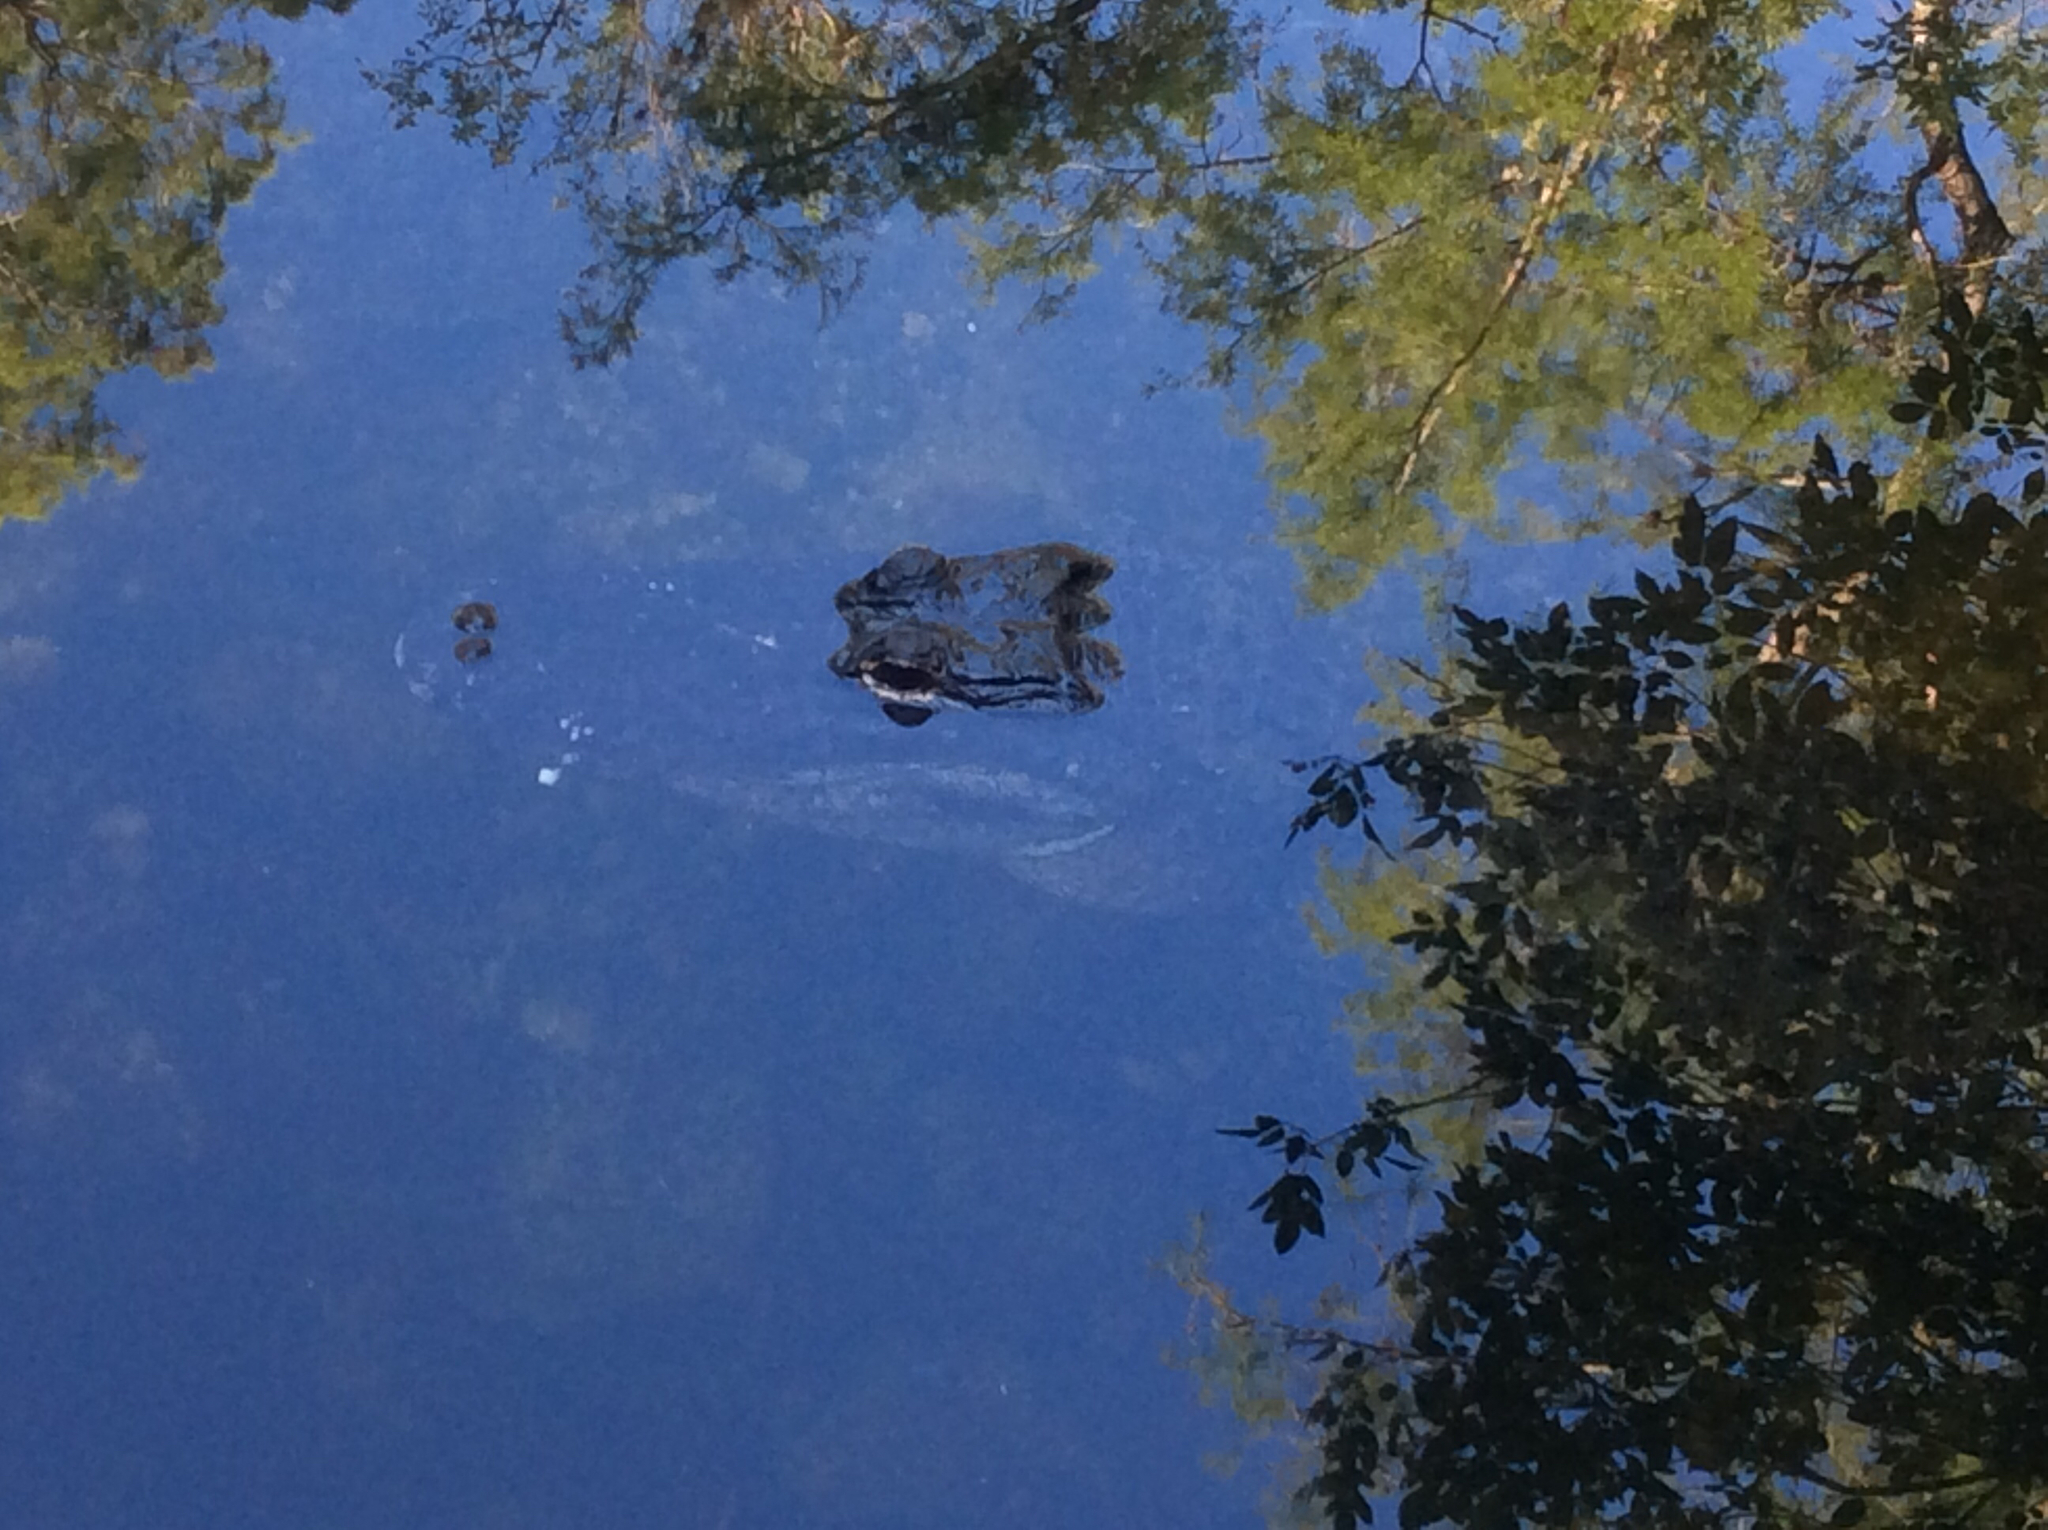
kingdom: Animalia
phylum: Chordata
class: Crocodylia
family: Alligatoridae
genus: Alligator
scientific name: Alligator mississippiensis
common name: American alligator
